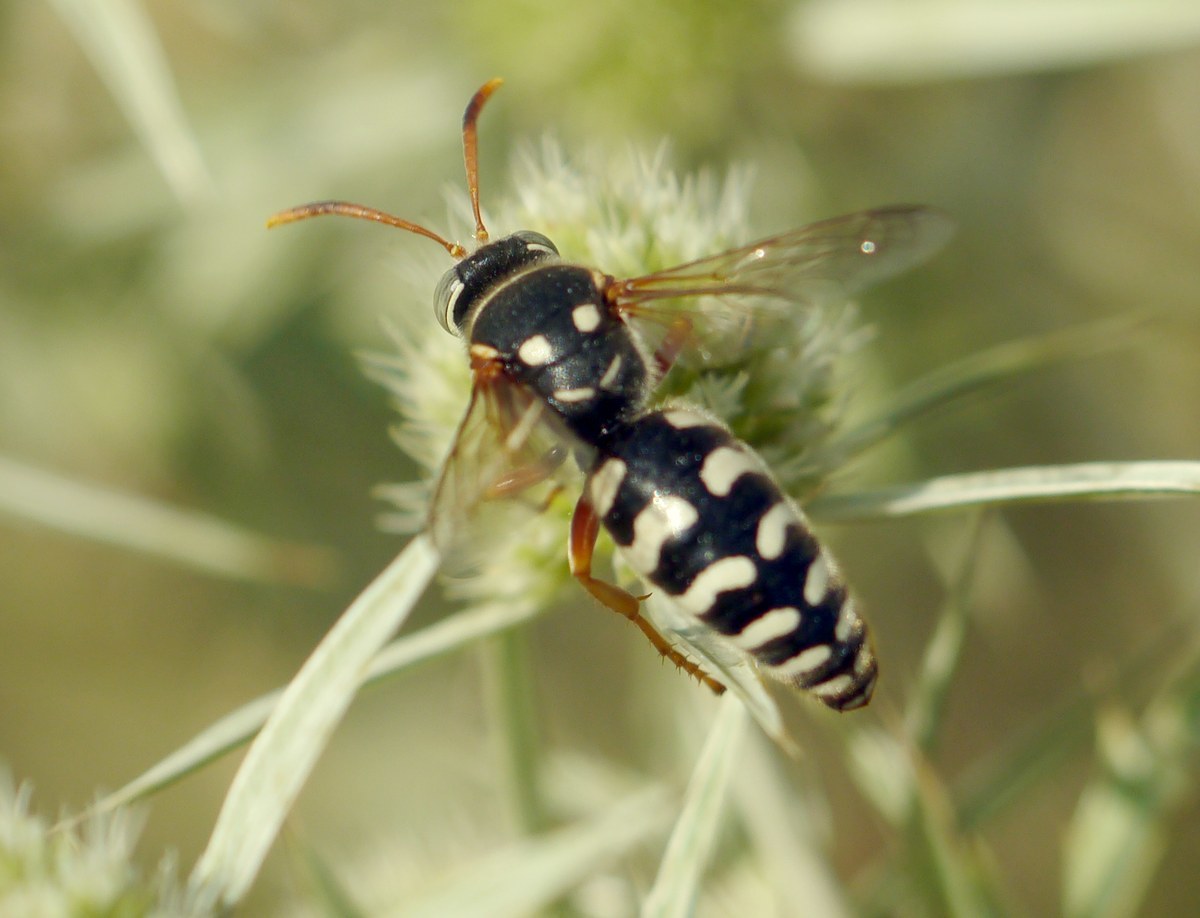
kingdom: Animalia
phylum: Arthropoda
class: Insecta
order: Hymenoptera
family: Crabronidae
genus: Stizus
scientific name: Stizus bipunctatus
